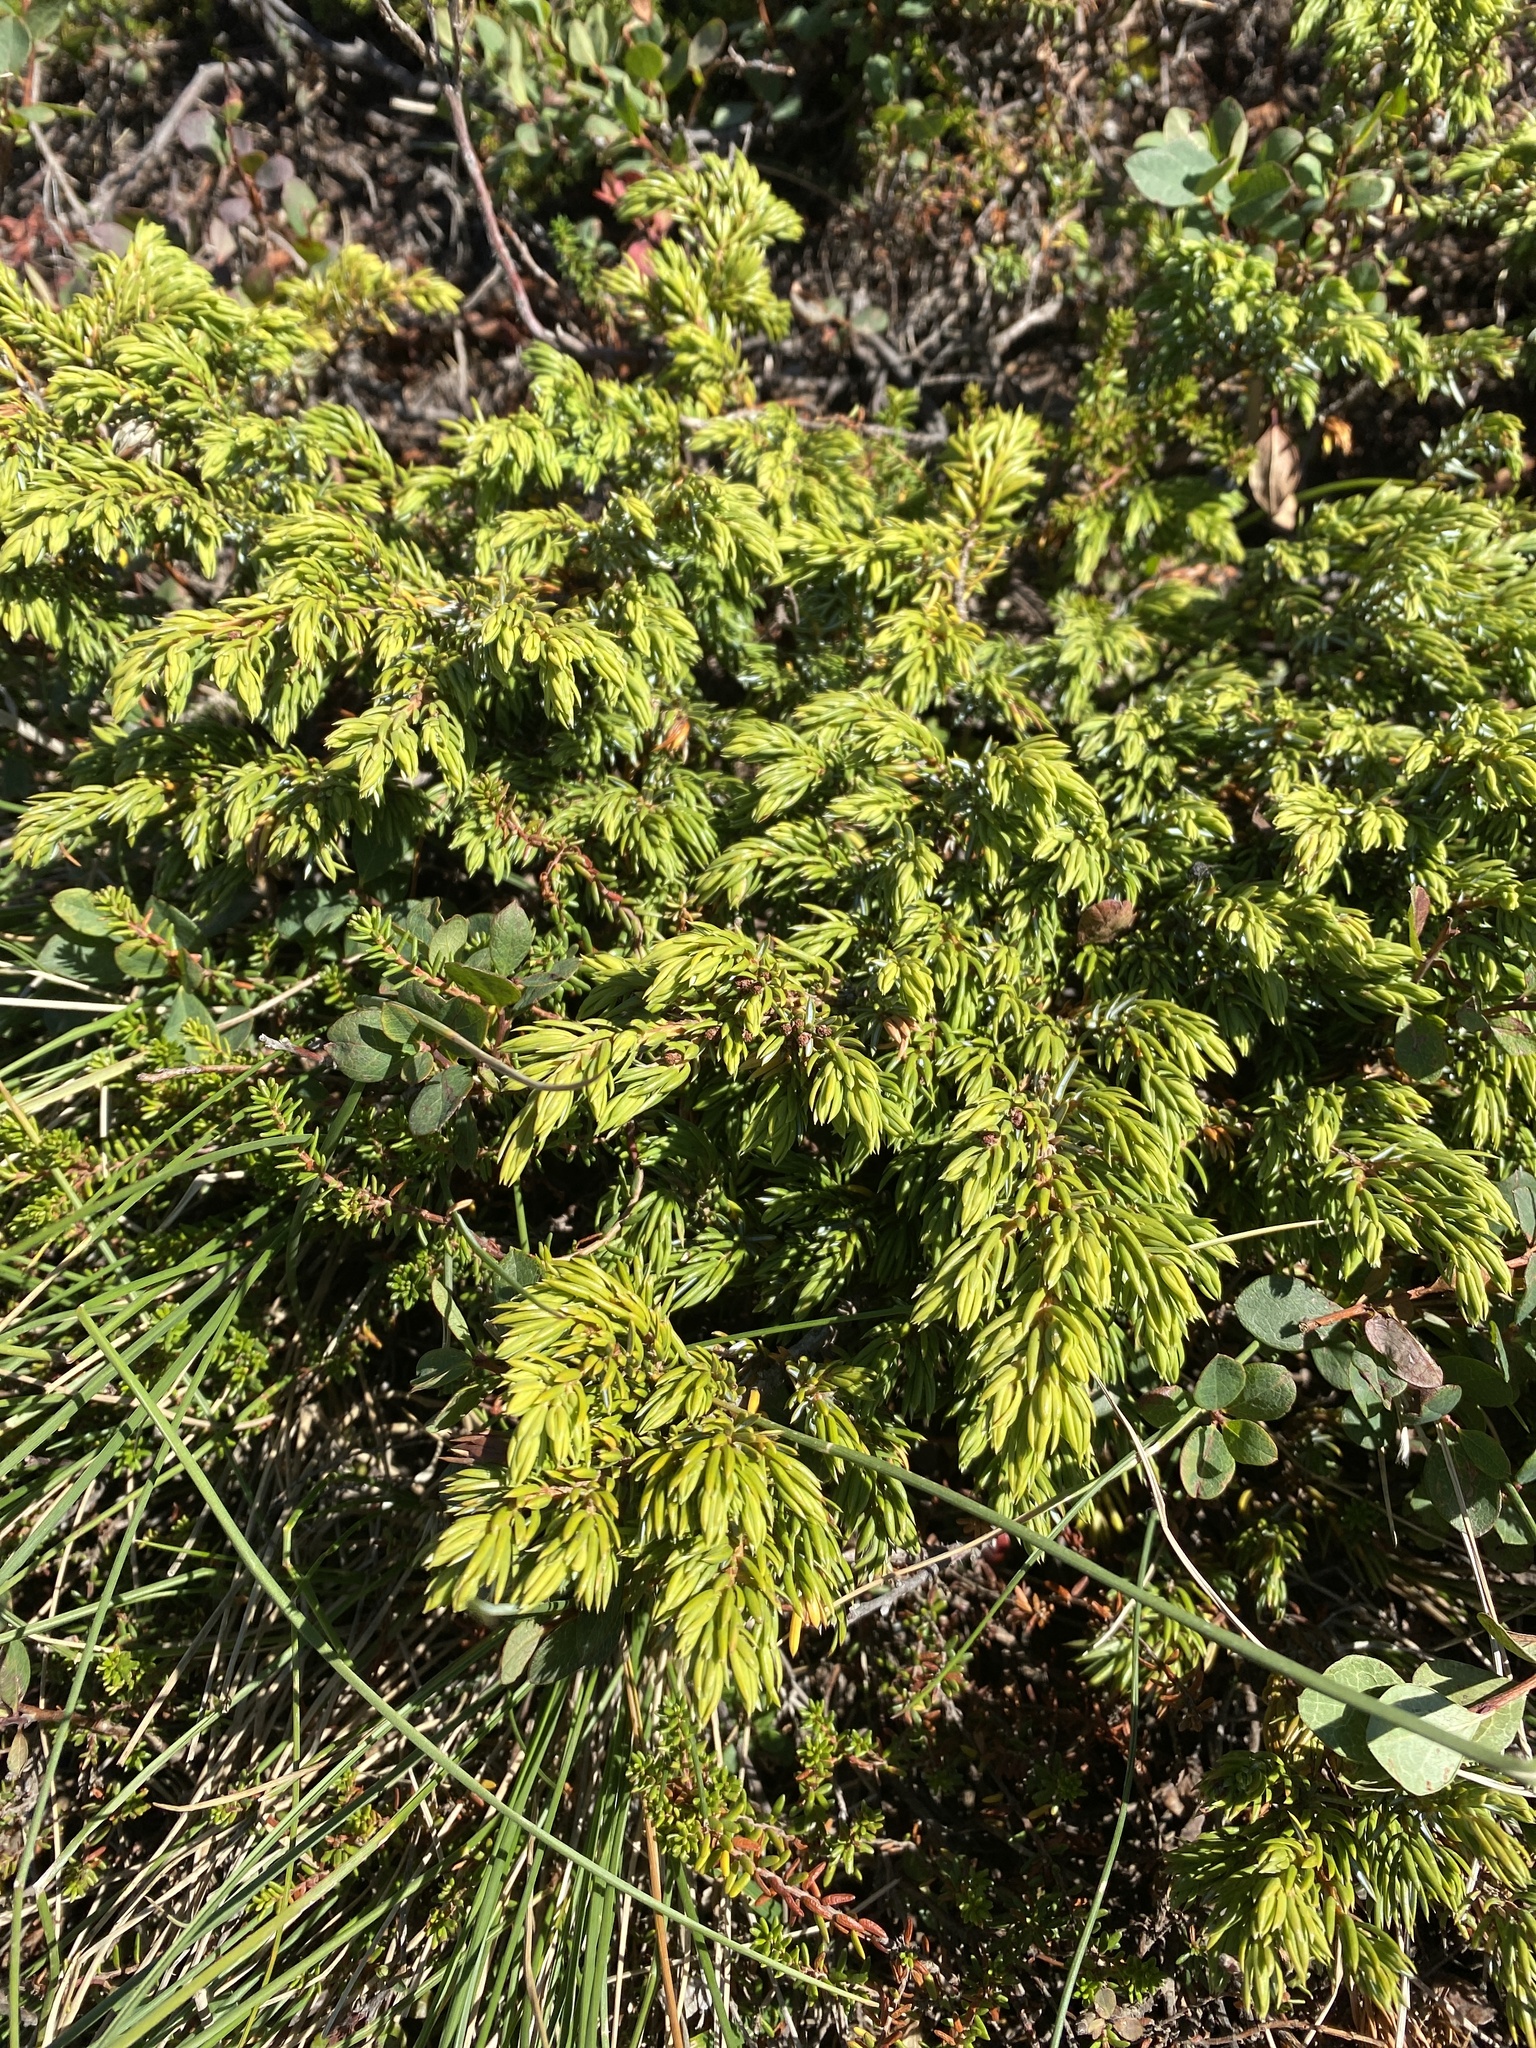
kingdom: Plantae
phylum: Tracheophyta
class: Pinopsida
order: Pinales
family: Cupressaceae
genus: Juniperus
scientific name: Juniperus communis
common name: Common juniper
